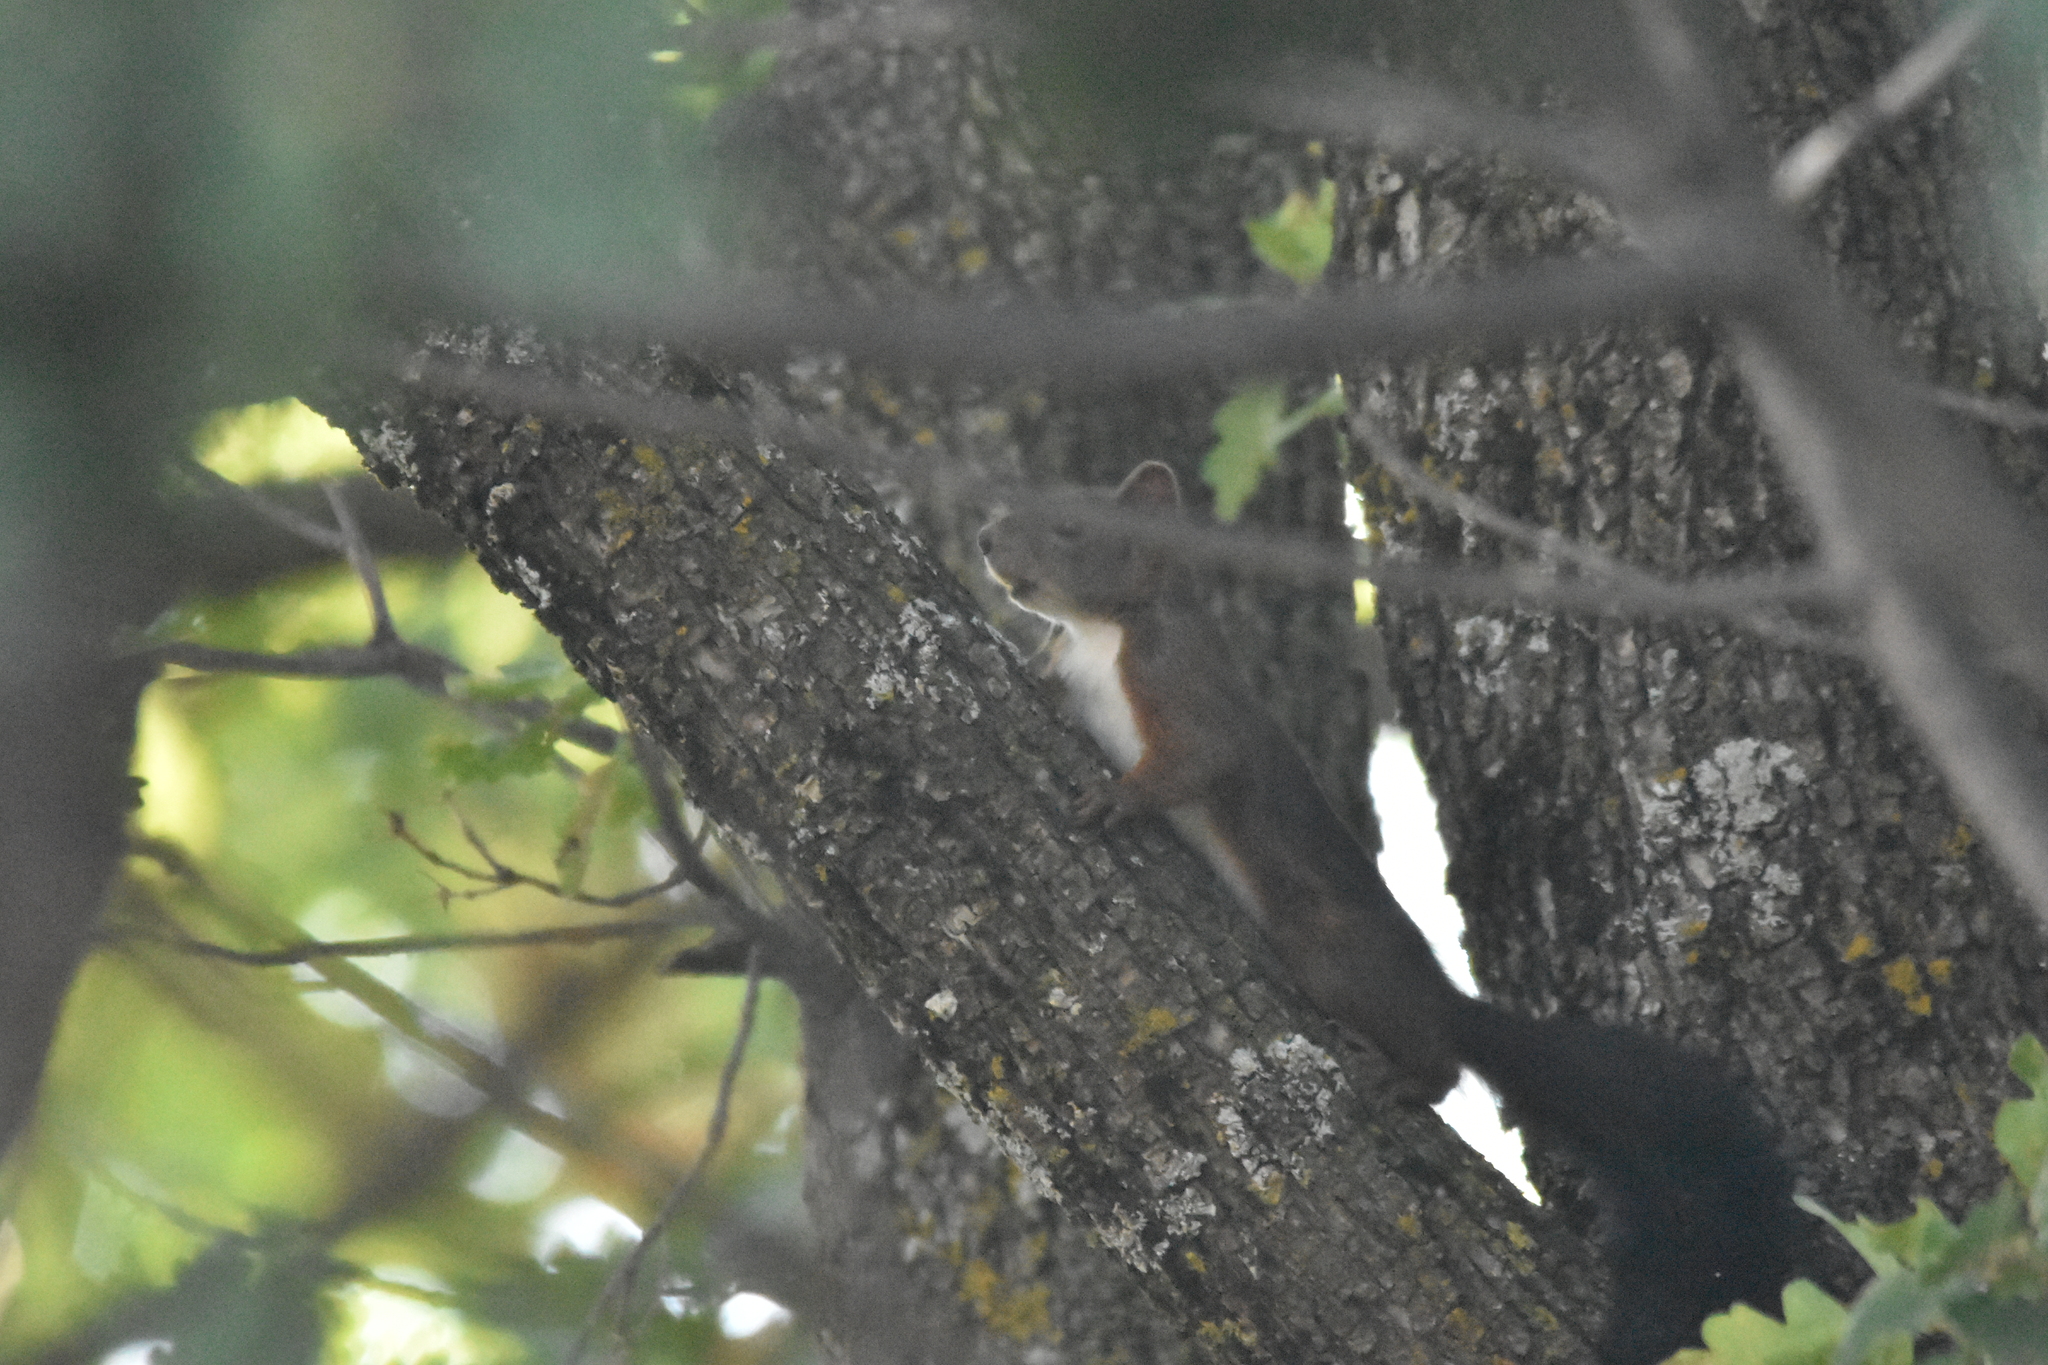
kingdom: Animalia
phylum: Chordata
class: Mammalia
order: Rodentia
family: Sciuridae
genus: Sciurus
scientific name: Sciurus vulgaris
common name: Eurasian red squirrel
